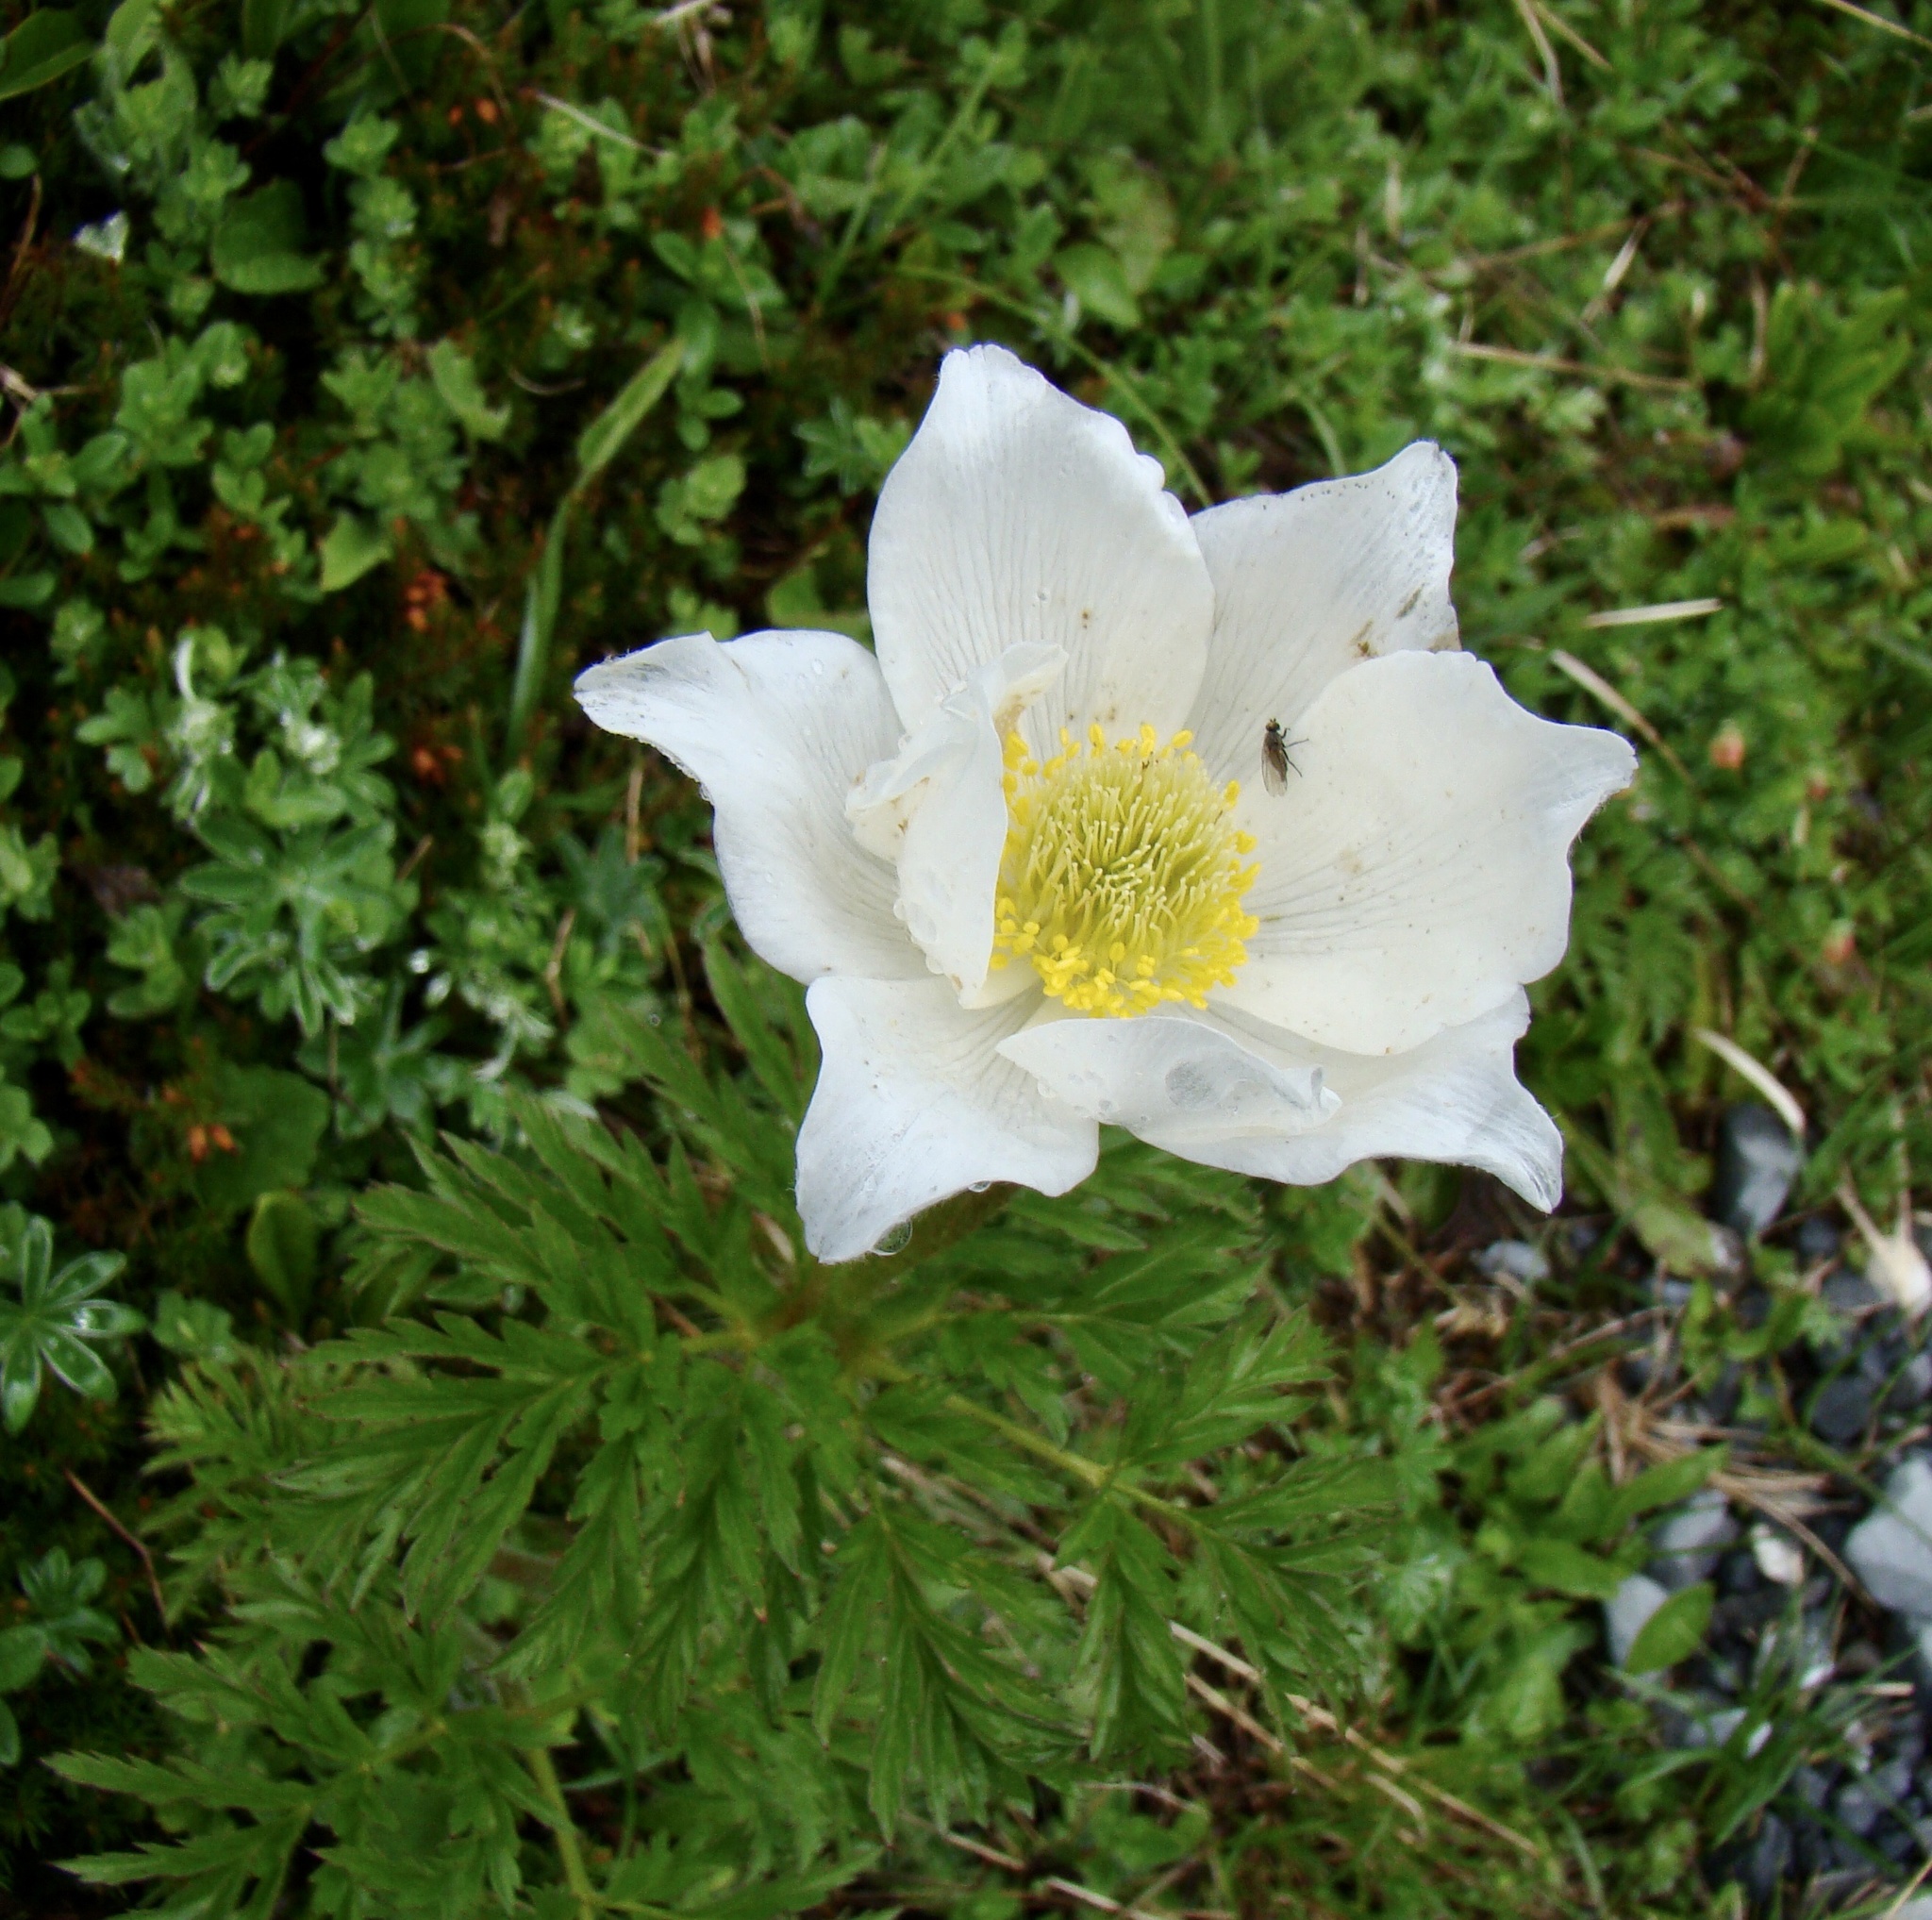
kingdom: Plantae
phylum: Tracheophyta
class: Magnoliopsida
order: Ranunculales
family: Ranunculaceae
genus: Pulsatilla
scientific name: Pulsatilla alpina
